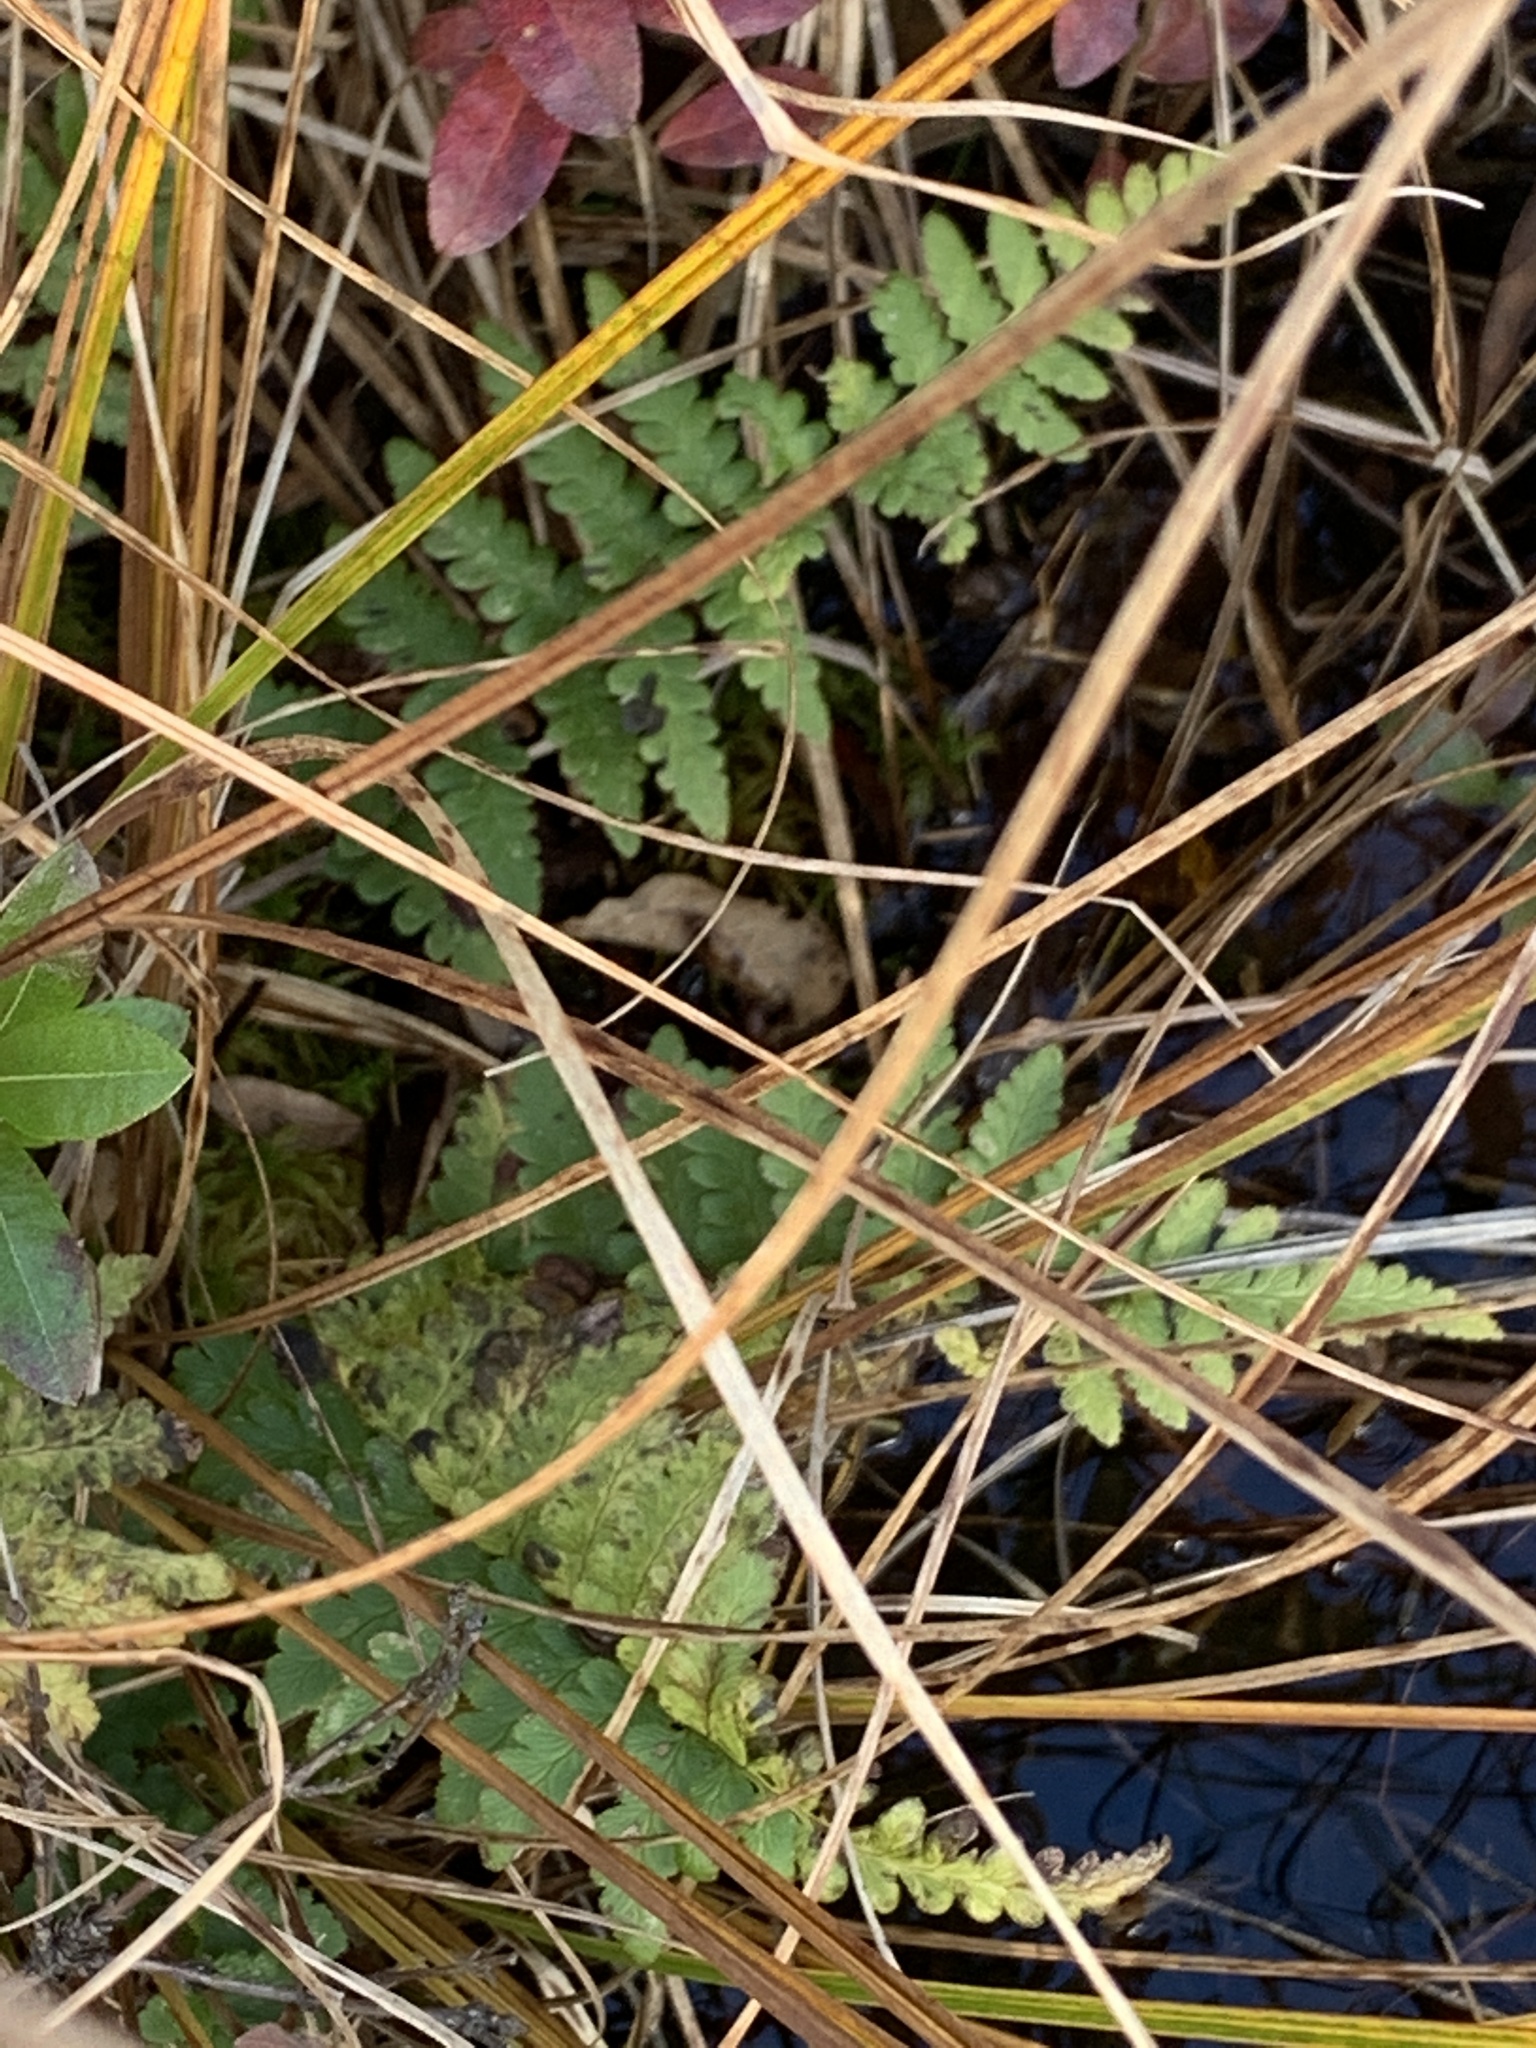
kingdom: Plantae
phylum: Tracheophyta
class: Polypodiopsida
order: Polypodiales
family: Dryopteridaceae
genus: Dryopteris
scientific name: Dryopteris cristata
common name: Crested wood fern
